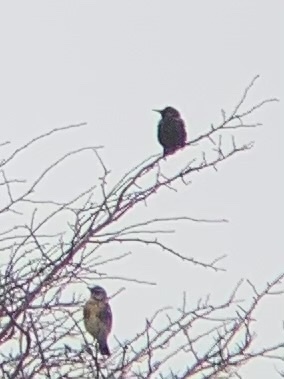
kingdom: Animalia
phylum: Chordata
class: Aves
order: Passeriformes
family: Sturnidae
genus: Sturnus
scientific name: Sturnus vulgaris
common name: Common starling
